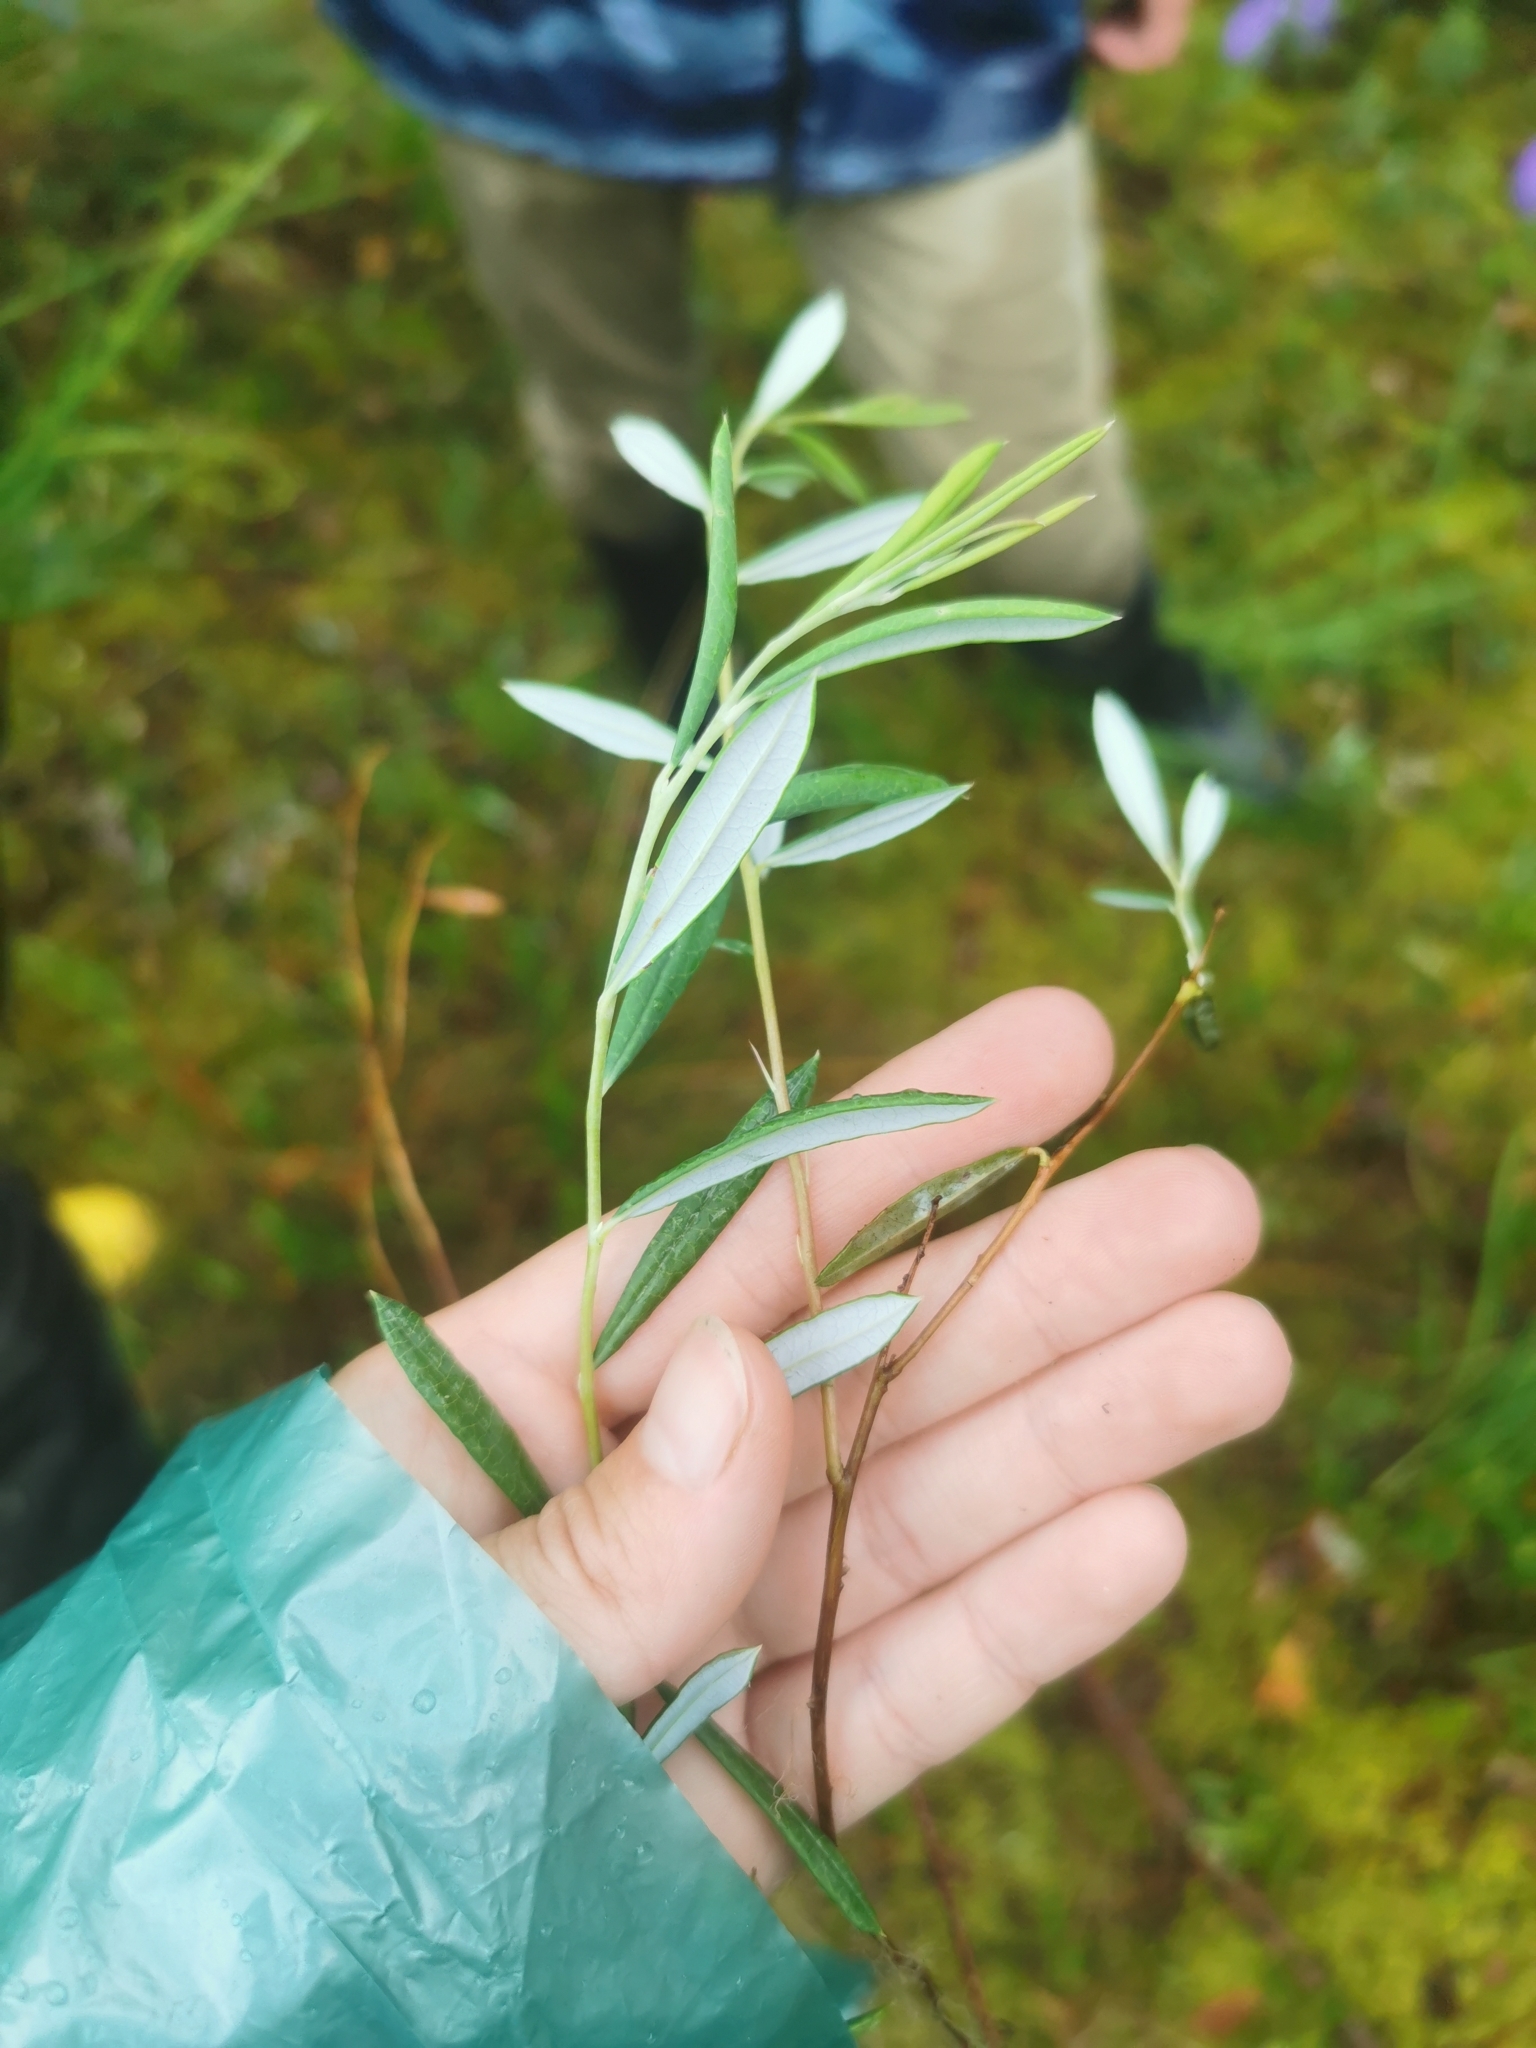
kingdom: Plantae
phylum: Tracheophyta
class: Magnoliopsida
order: Ericales
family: Ericaceae
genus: Andromeda
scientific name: Andromeda polifolia
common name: Bog-rosemary
